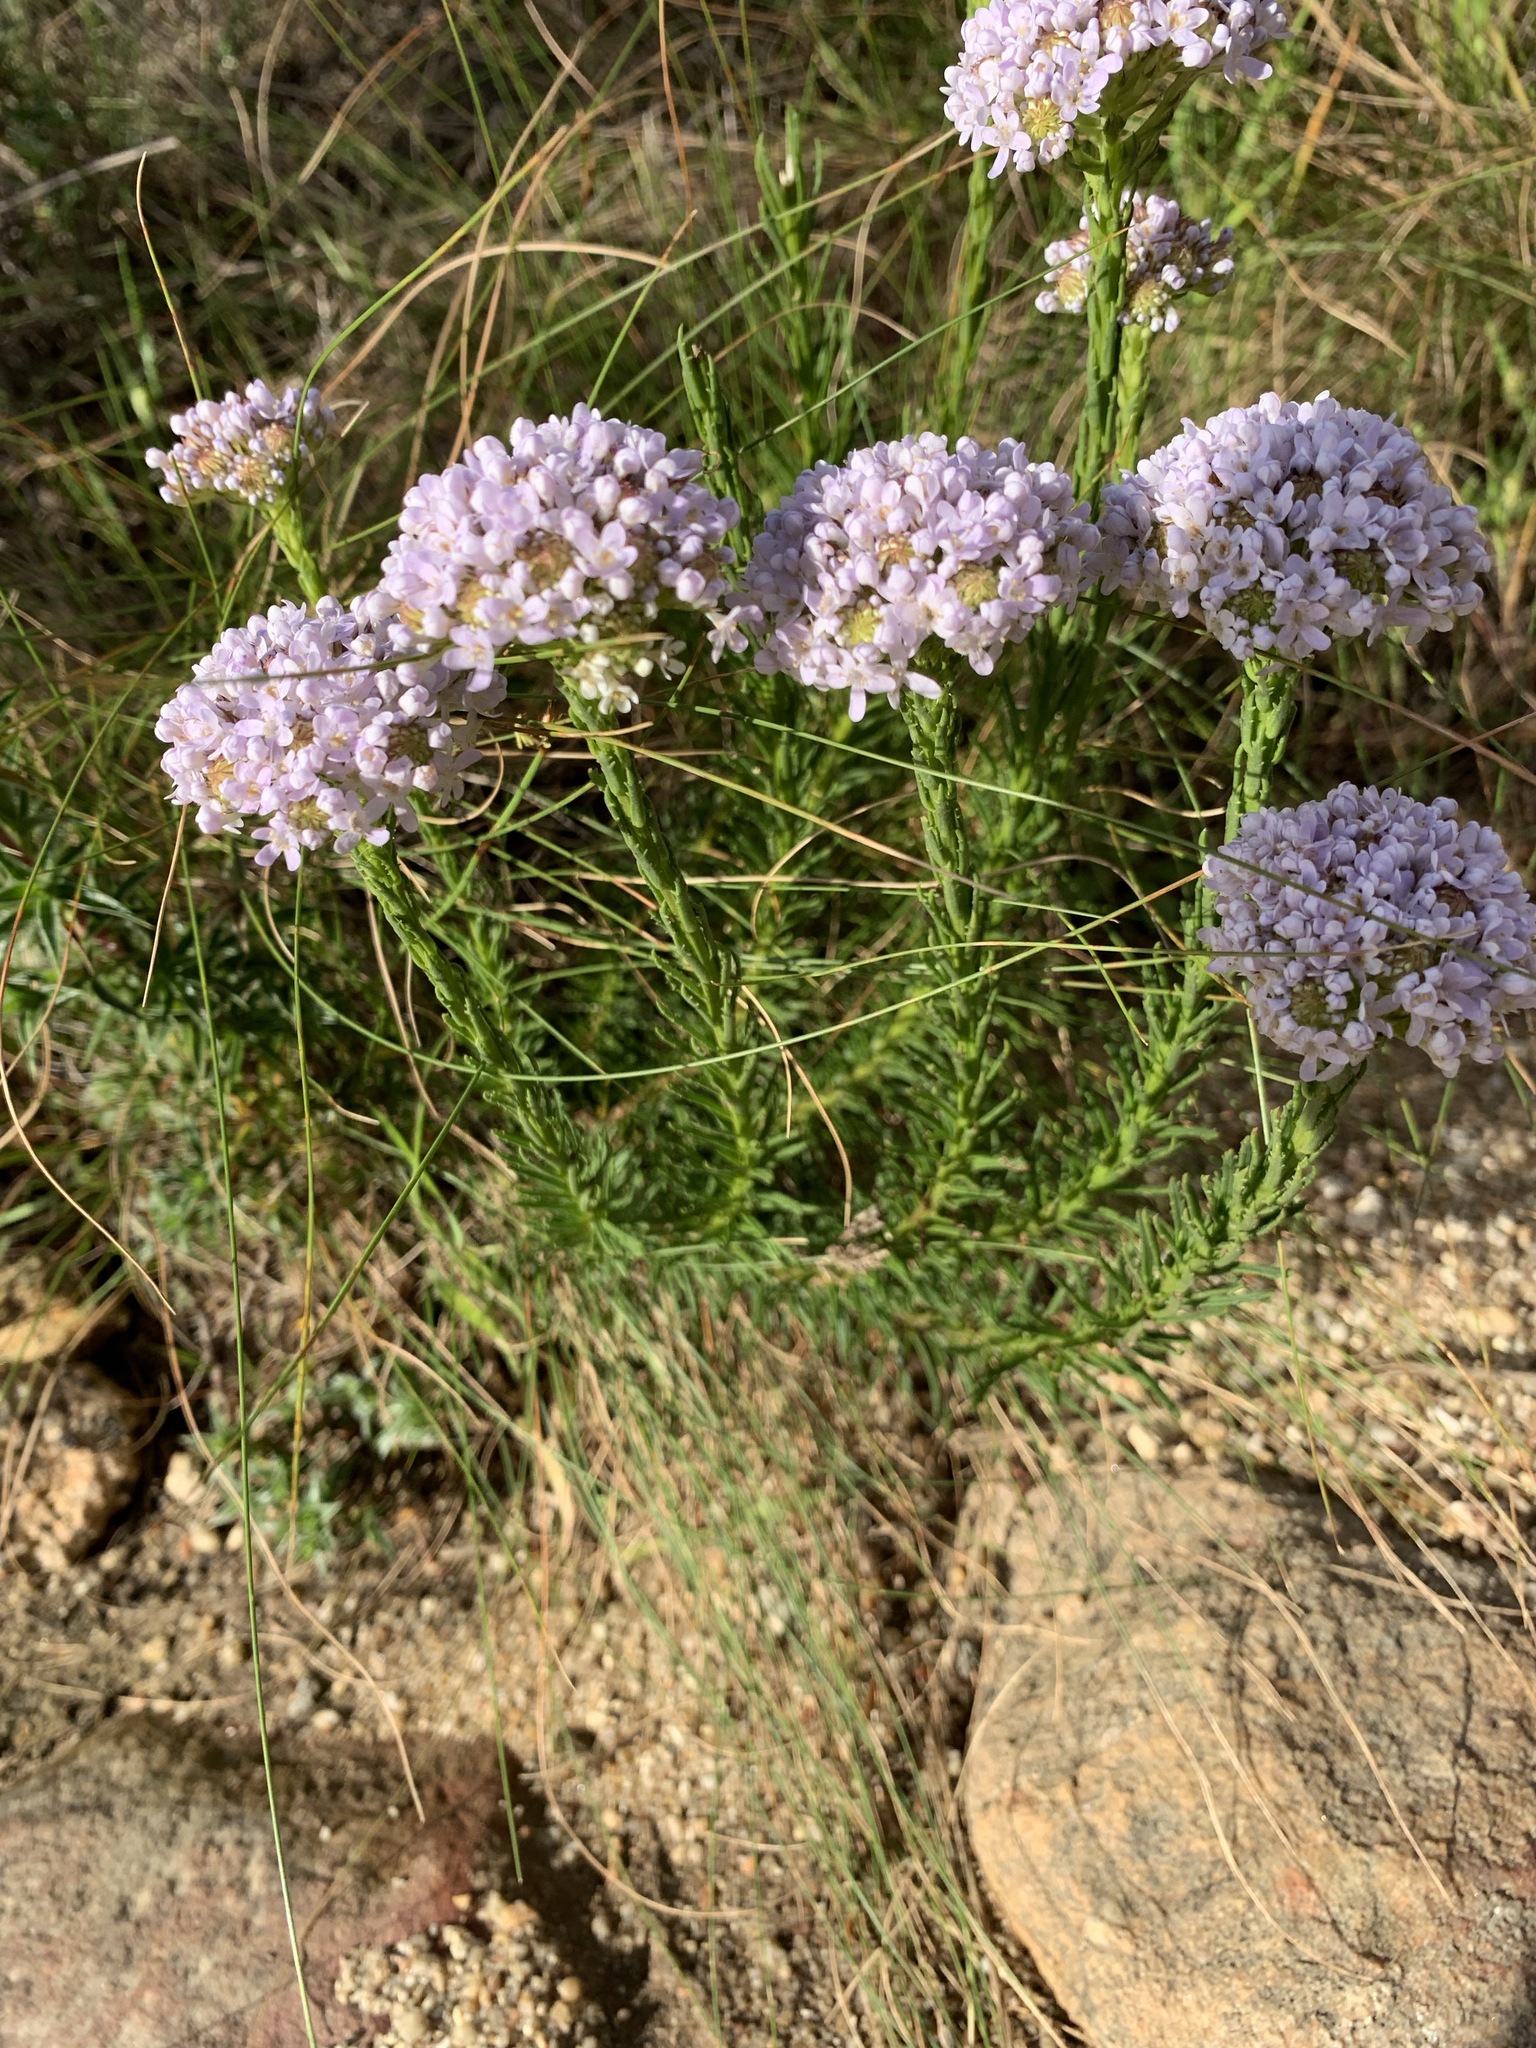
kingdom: Plantae
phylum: Tracheophyta
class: Magnoliopsida
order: Lamiales
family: Scrophulariaceae
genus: Pseudoselago
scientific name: Pseudoselago spuria
